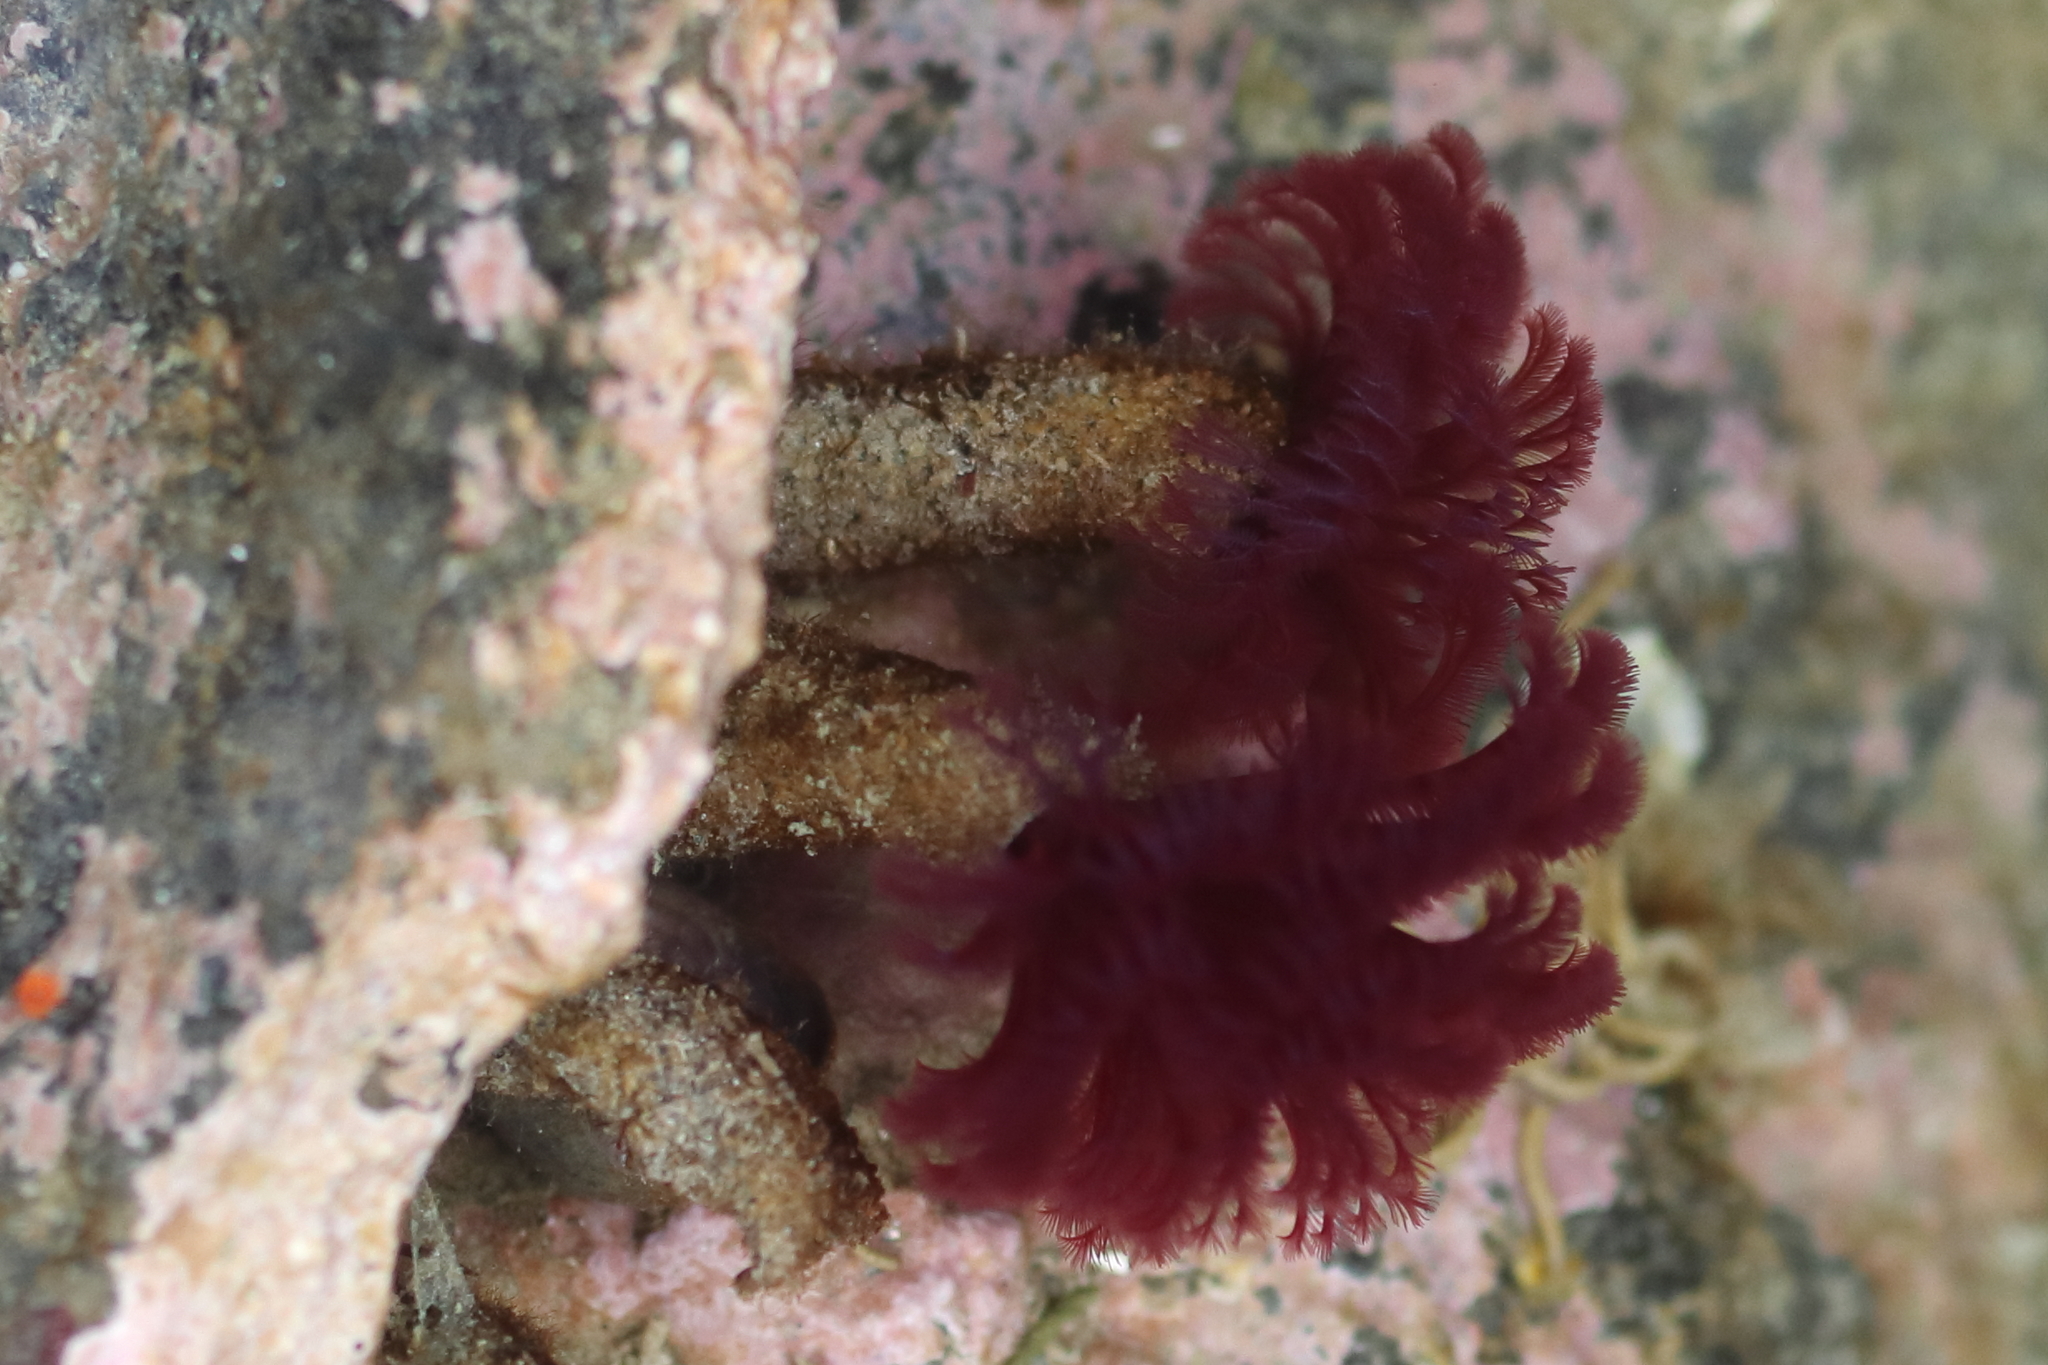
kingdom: Animalia
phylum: Annelida
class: Polychaeta
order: Sabellida
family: Sabellidae
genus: Schizobranchia
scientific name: Schizobranchia insignis
